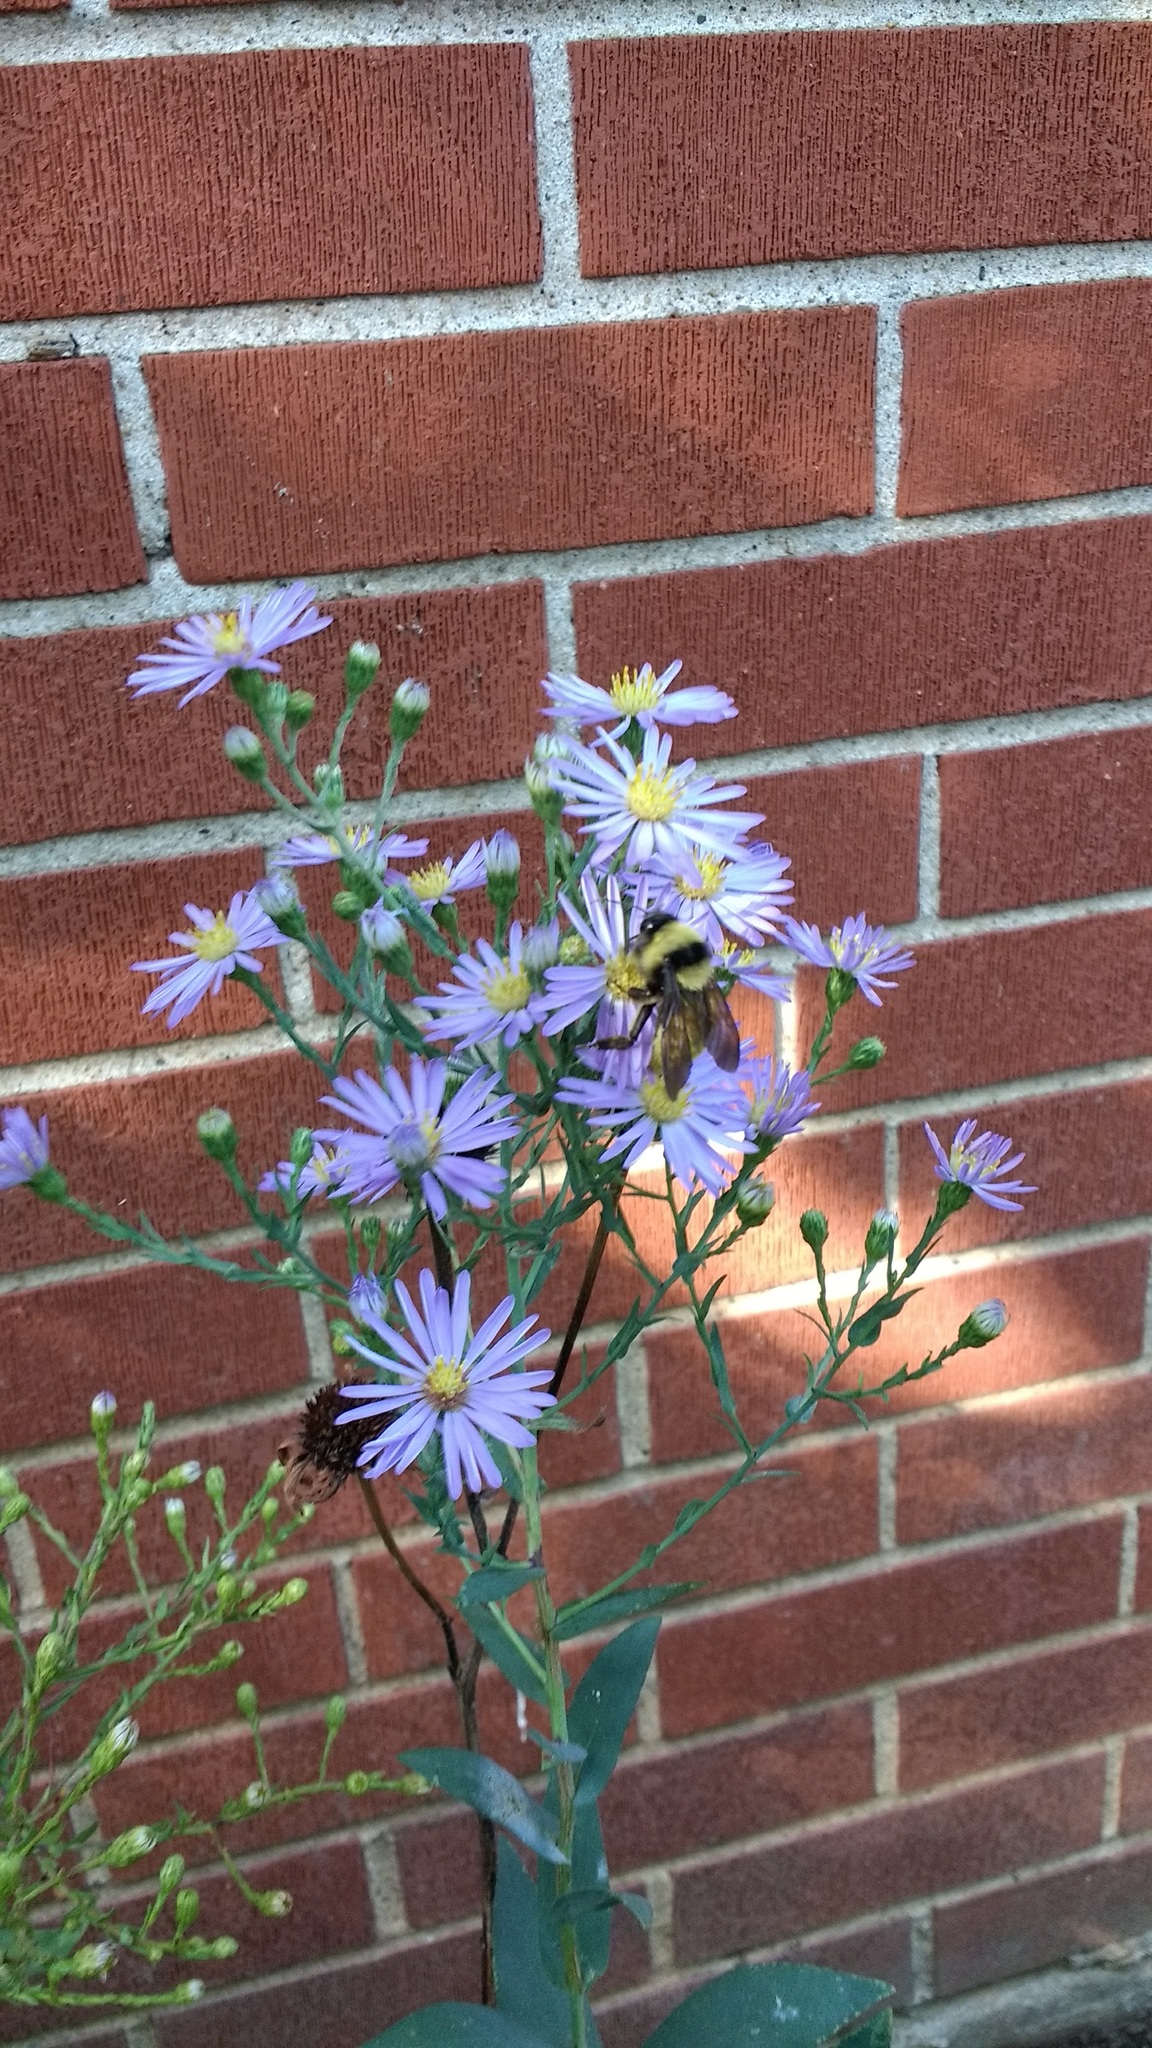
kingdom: Animalia
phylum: Arthropoda
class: Insecta
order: Hymenoptera
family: Apidae
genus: Bombus
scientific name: Bombus pensylvanicus
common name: Bumble bee
